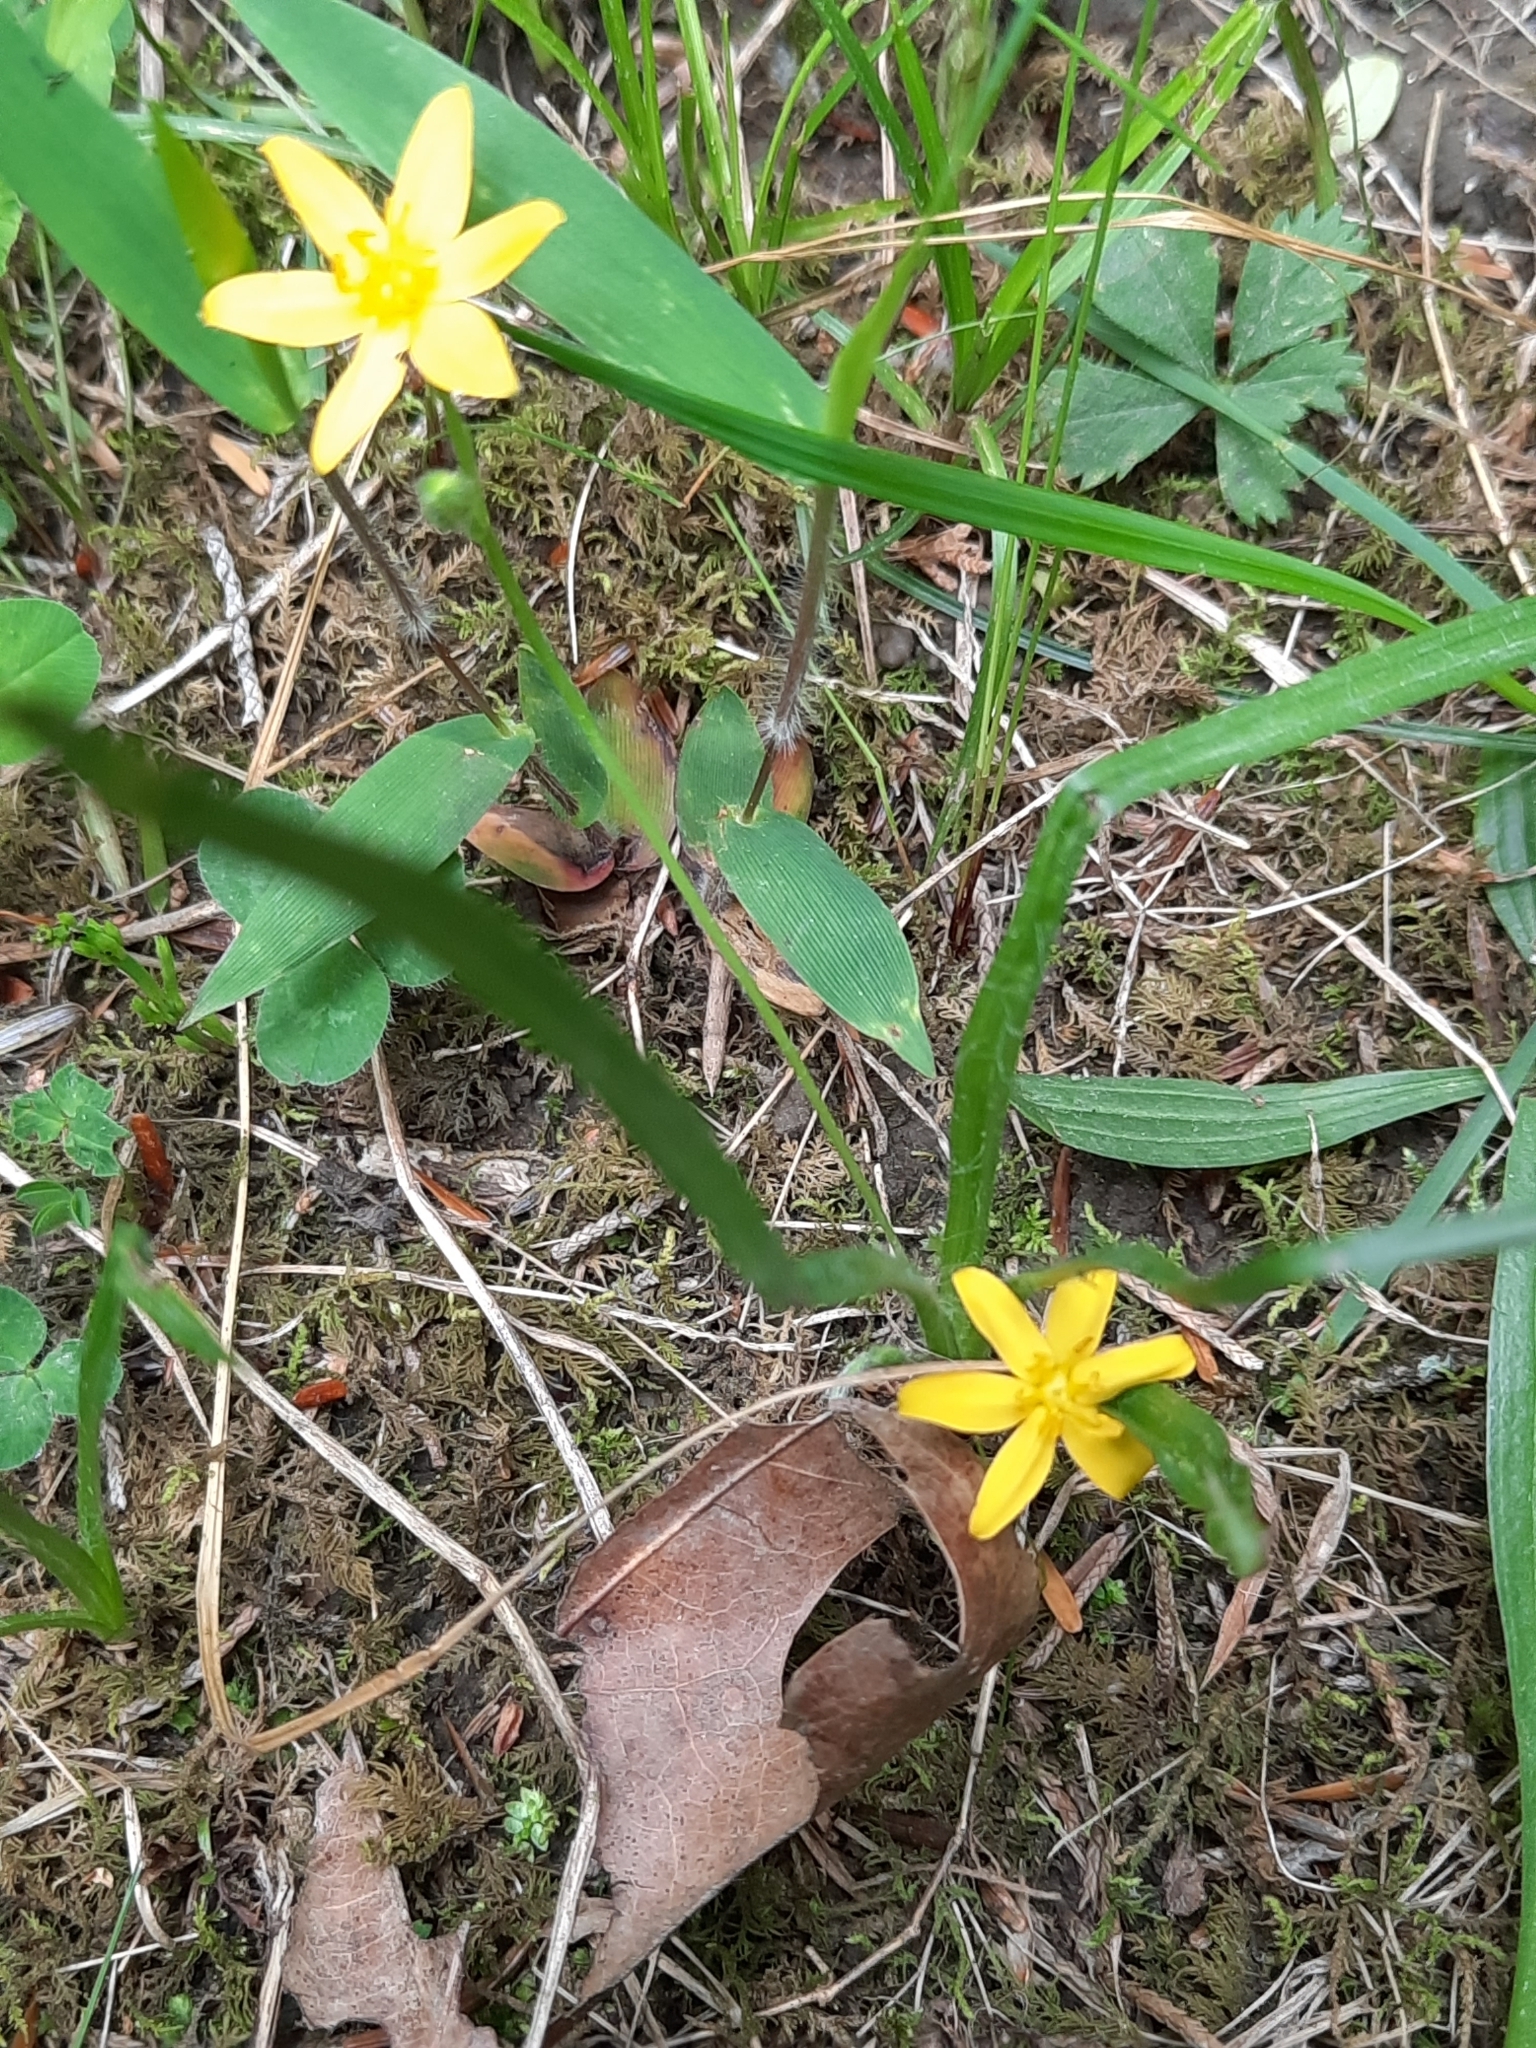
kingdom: Plantae
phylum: Tracheophyta
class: Liliopsida
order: Asparagales
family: Hypoxidaceae
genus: Hypoxis
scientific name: Hypoxis hirsuta
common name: Common goldstar
